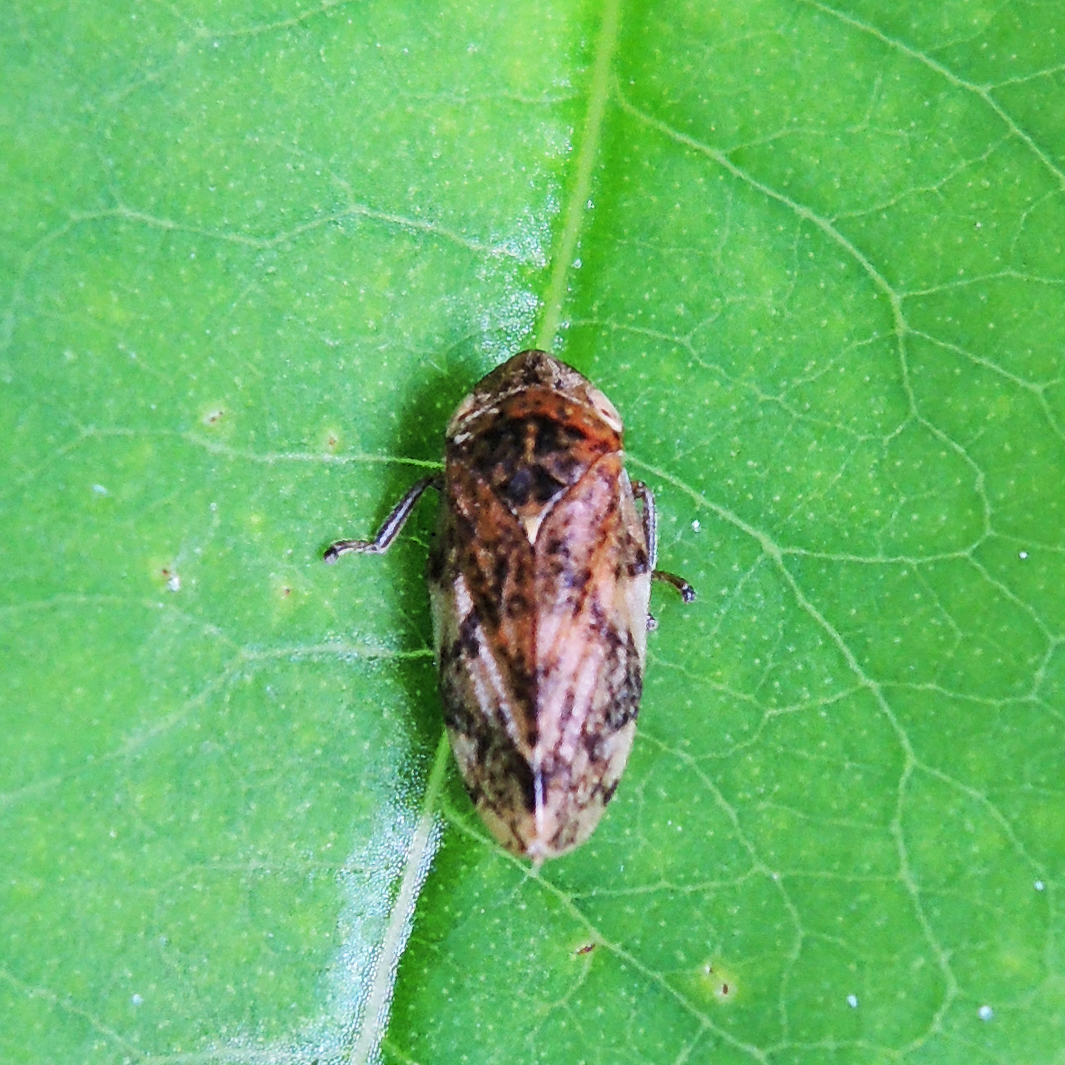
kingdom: Animalia
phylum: Arthropoda
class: Insecta
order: Hemiptera
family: Aphrophoridae
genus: Philaenus
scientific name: Philaenus spumarius
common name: Meadow spittlebug
